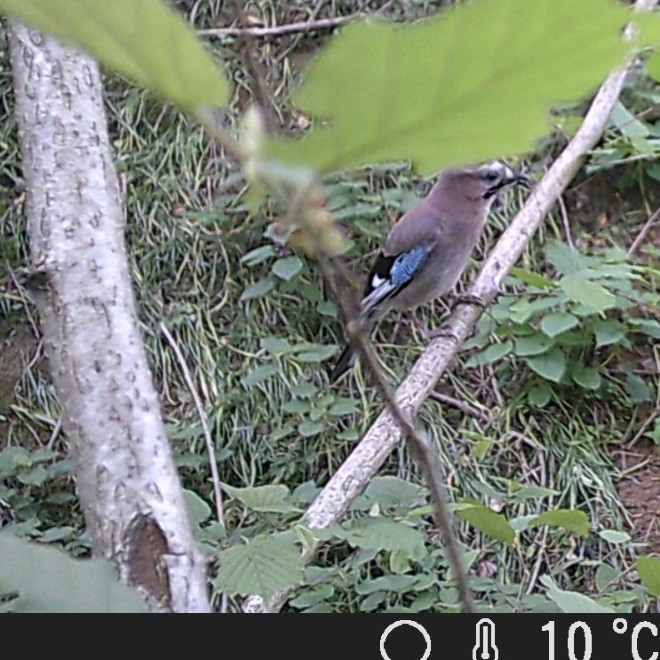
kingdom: Animalia
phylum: Chordata
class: Aves
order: Passeriformes
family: Corvidae
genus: Garrulus
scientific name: Garrulus glandarius
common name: Eurasian jay
